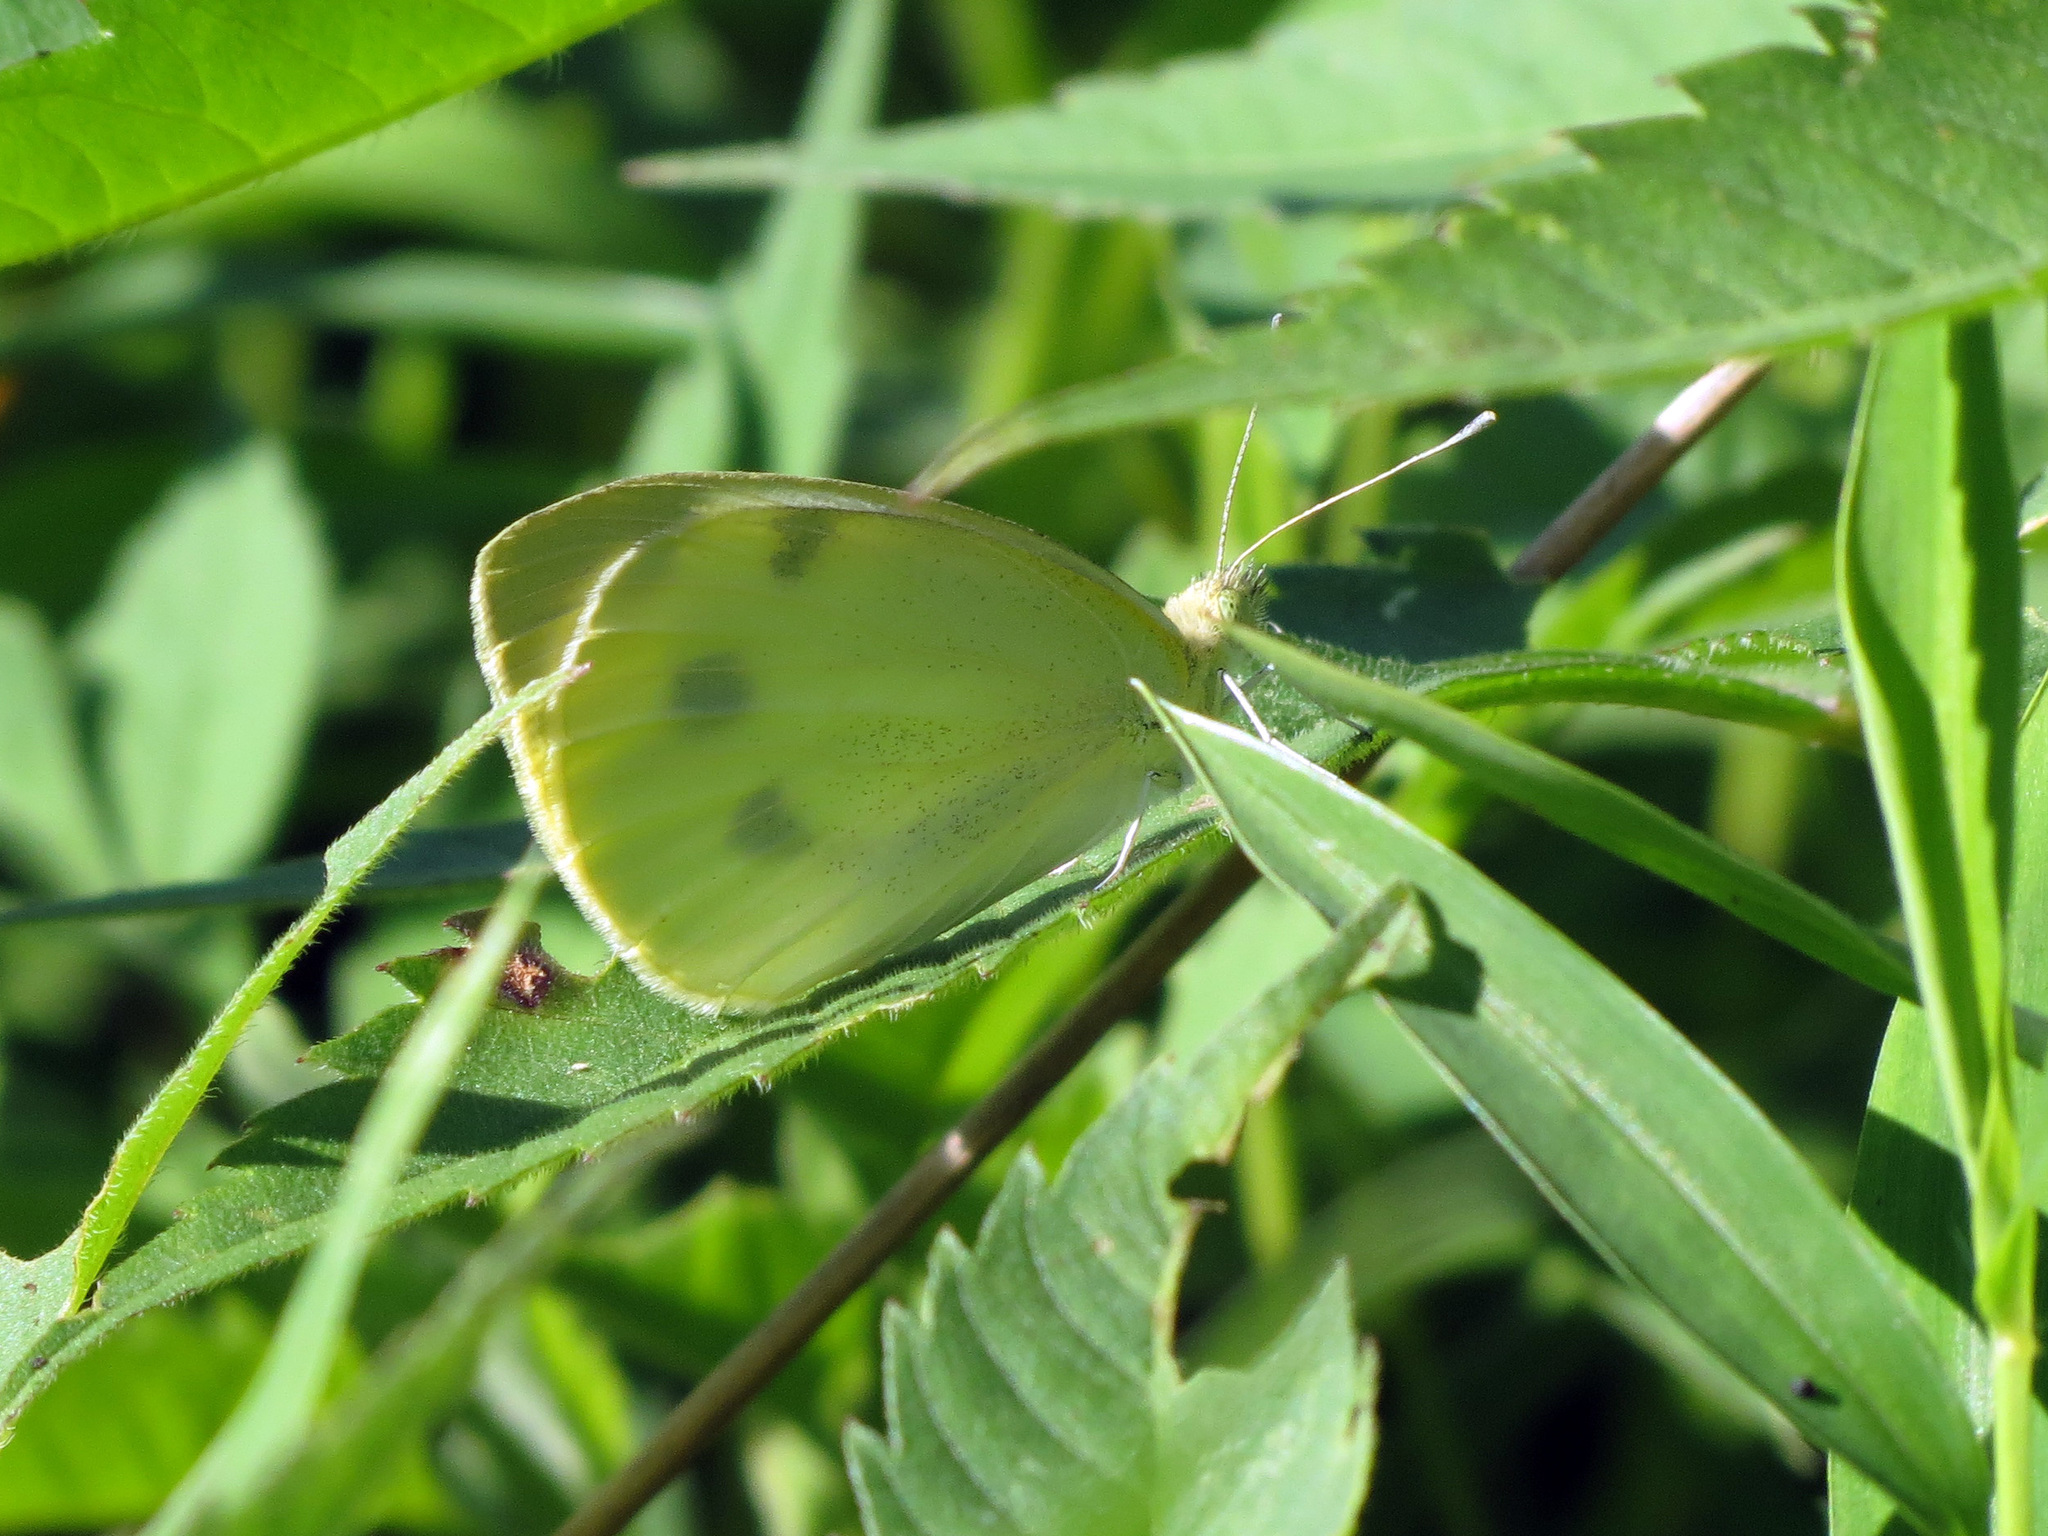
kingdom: Animalia
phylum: Arthropoda
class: Insecta
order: Lepidoptera
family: Pieridae
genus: Pieris
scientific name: Pieris rapae
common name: Small white
